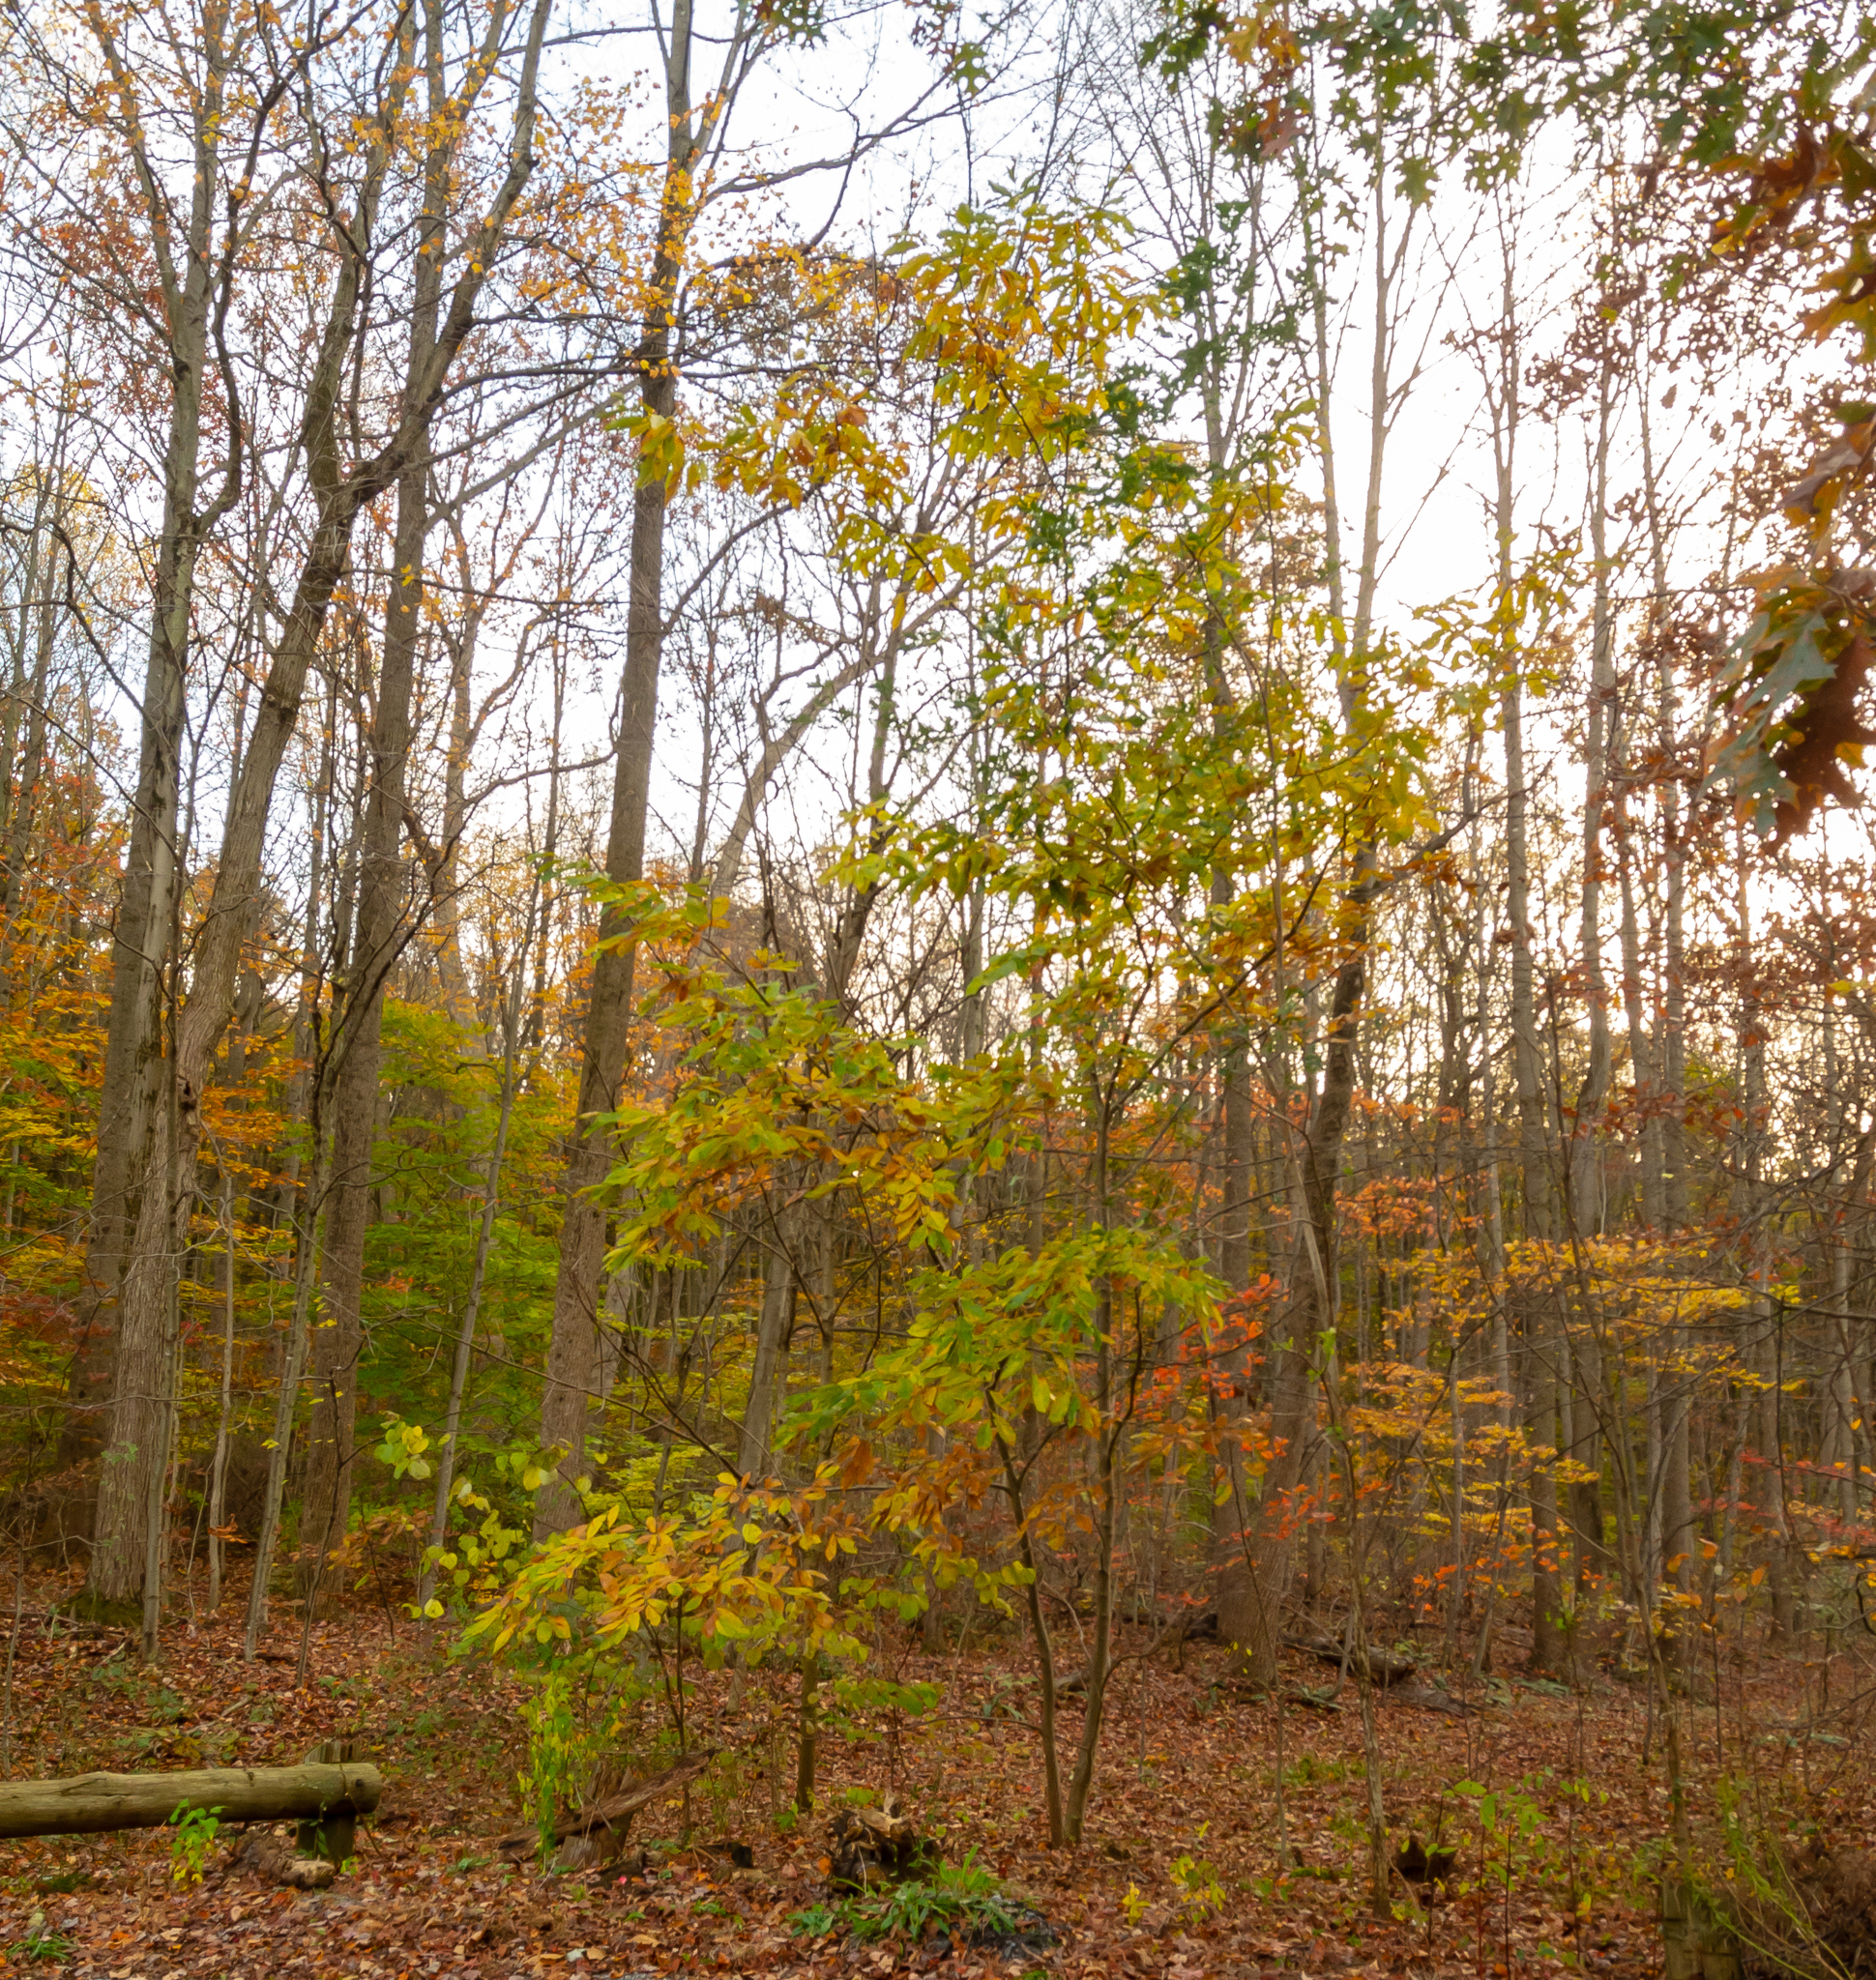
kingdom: Plantae
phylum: Tracheophyta
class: Magnoliopsida
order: Fagales
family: Fagaceae
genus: Castanea
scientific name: Castanea dentata
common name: American chestnut
